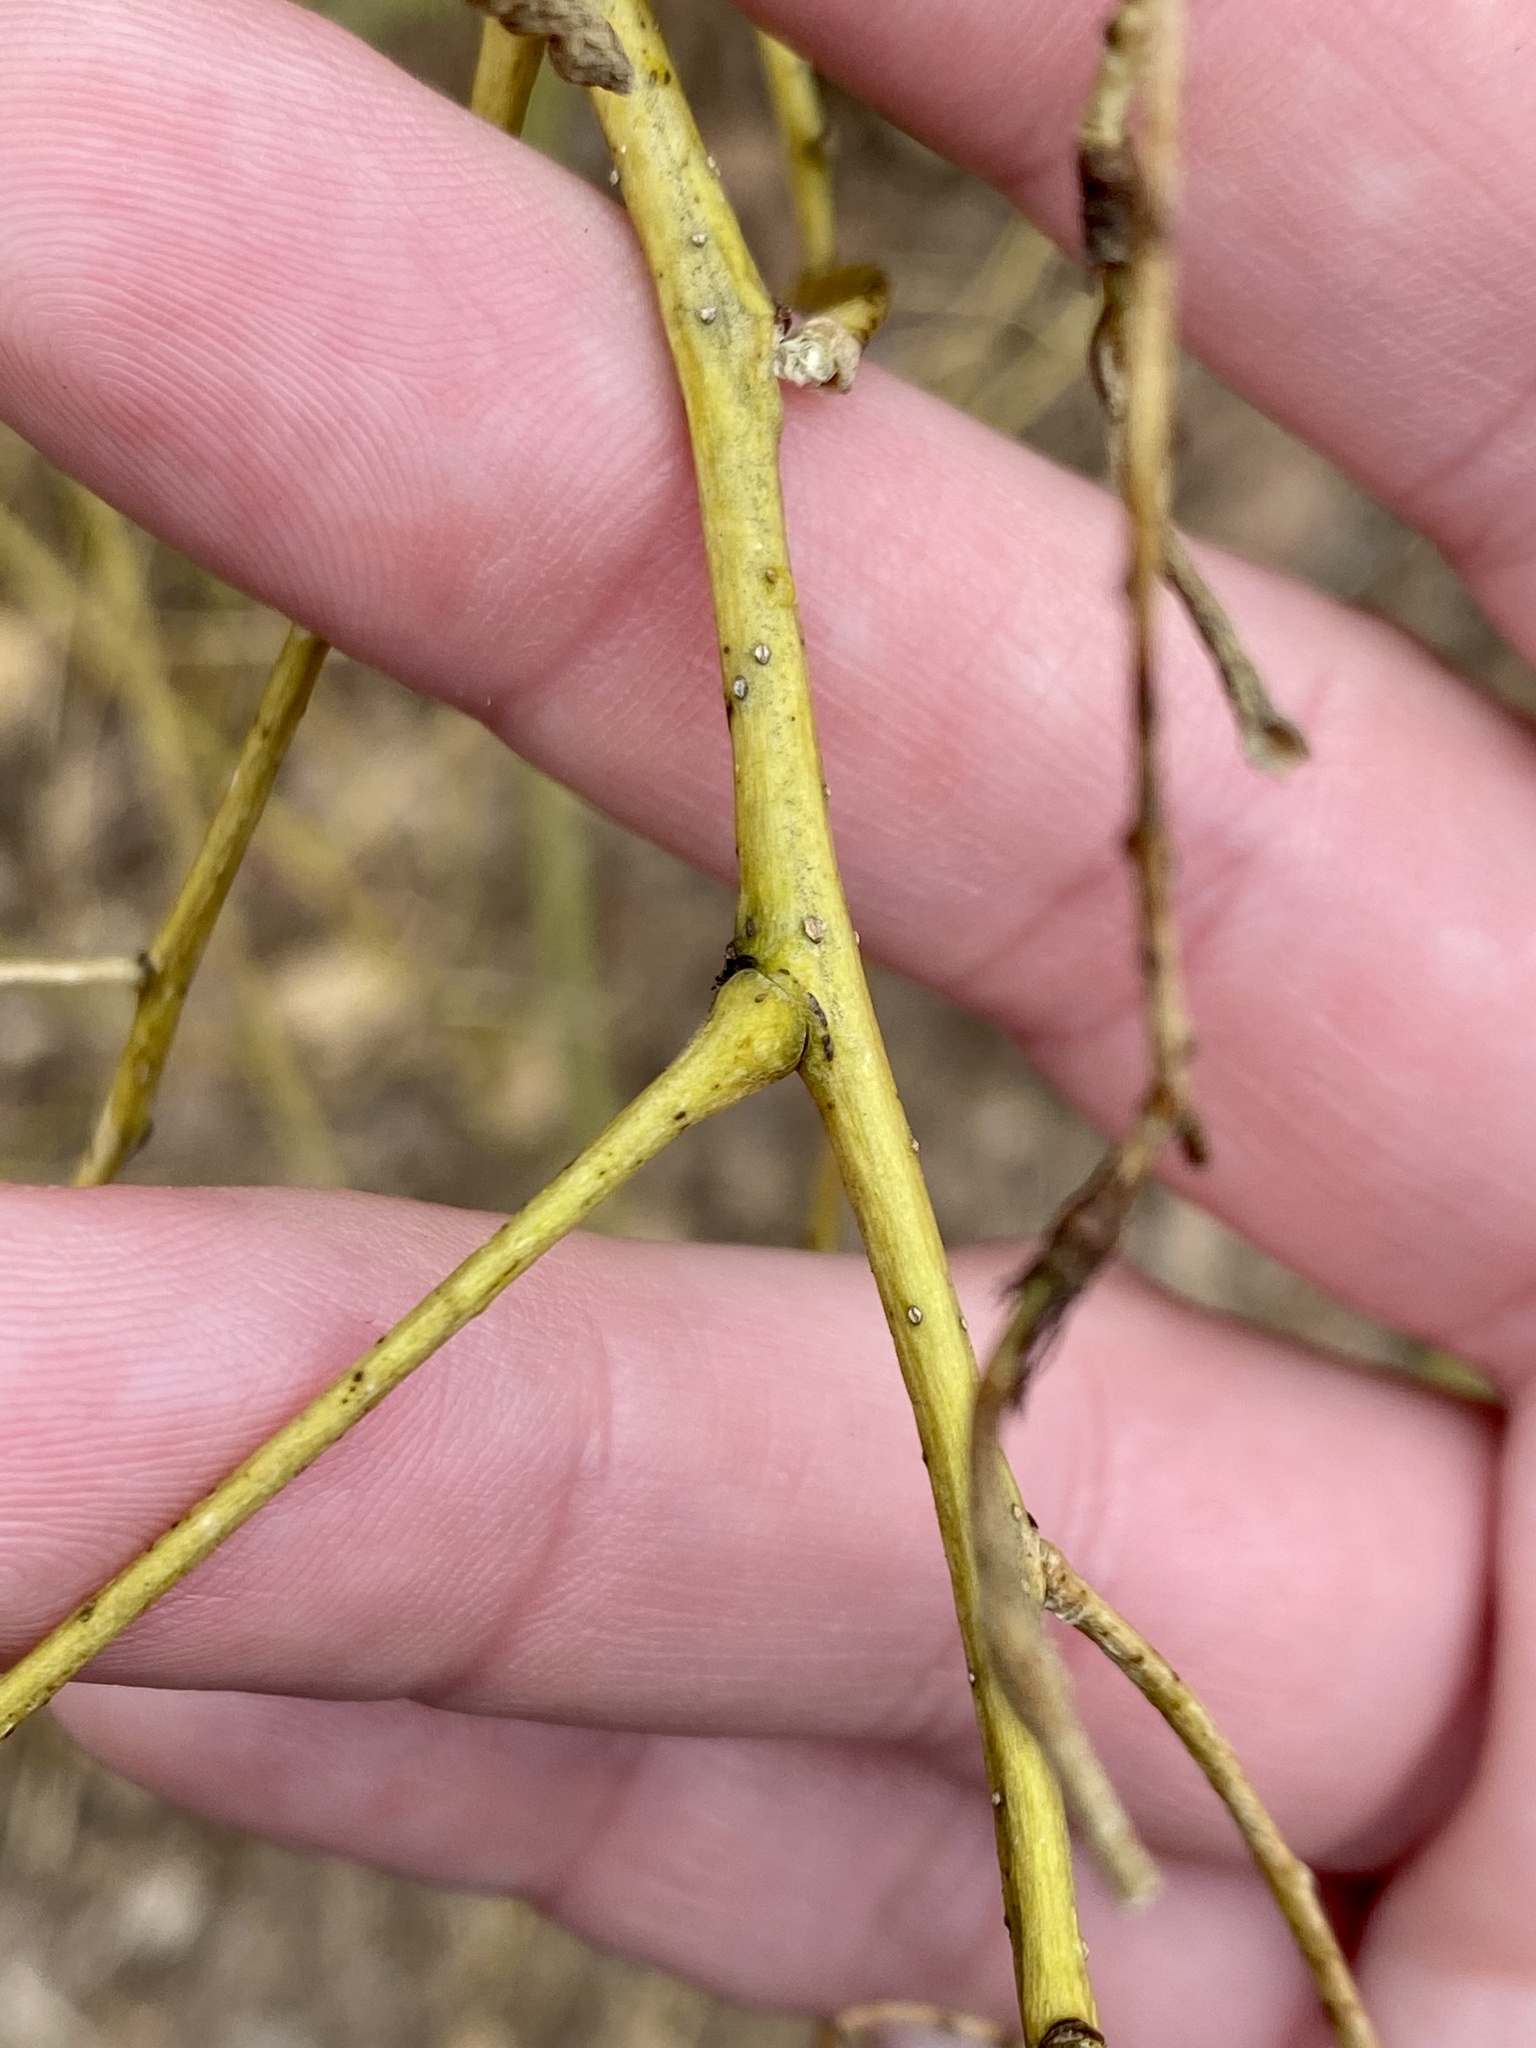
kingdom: Plantae
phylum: Tracheophyta
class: Magnoliopsida
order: Fabales
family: Fabaceae
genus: Styphnolobium
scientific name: Styphnolobium japonicum
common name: Chinese scholartree
